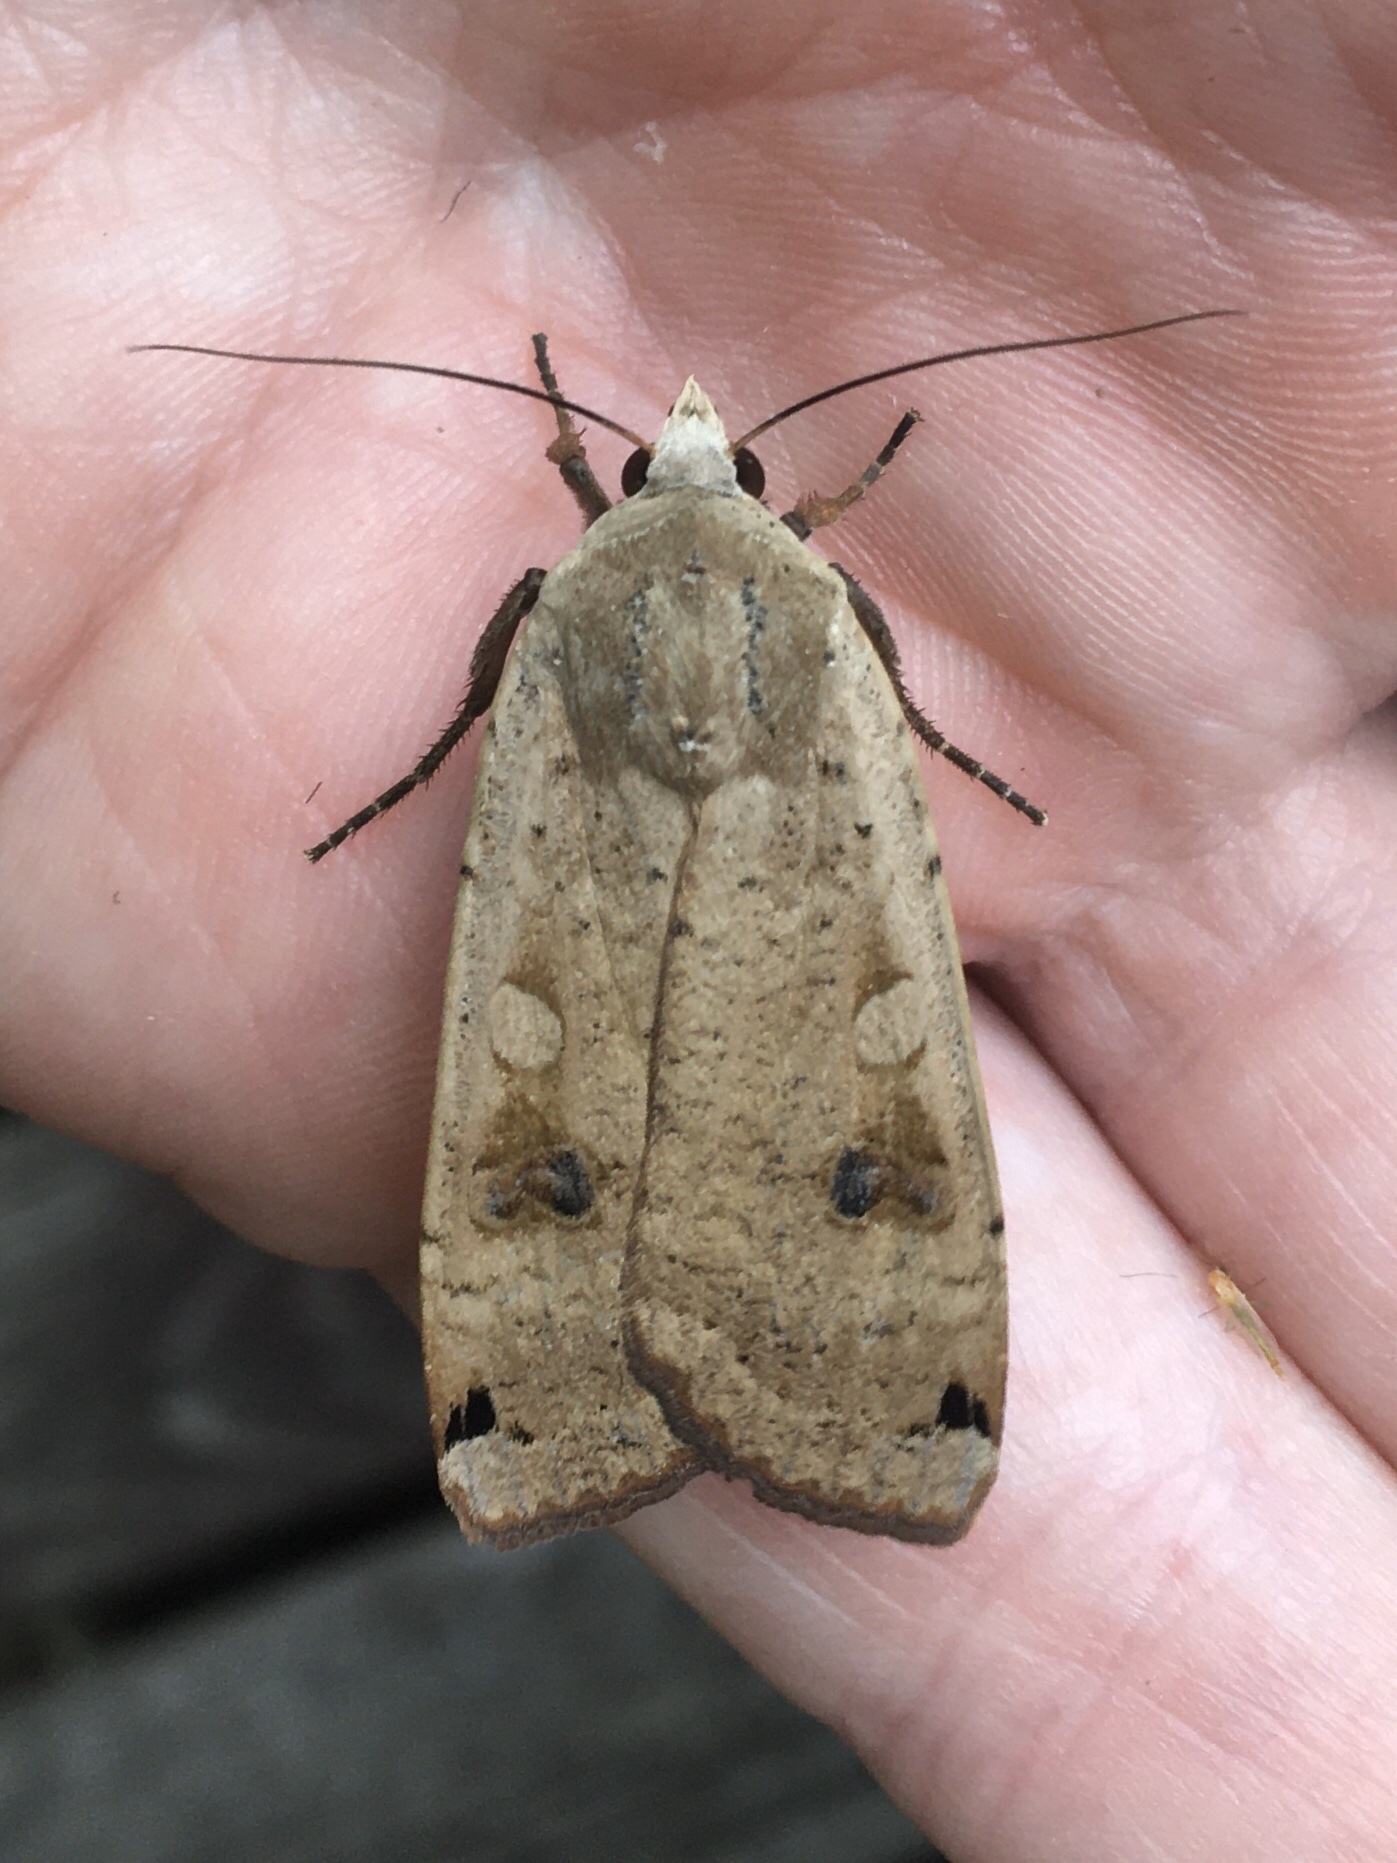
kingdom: Animalia
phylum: Arthropoda
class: Insecta
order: Lepidoptera
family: Noctuidae
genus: Noctua
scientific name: Noctua pronuba
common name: Large yellow underwing
